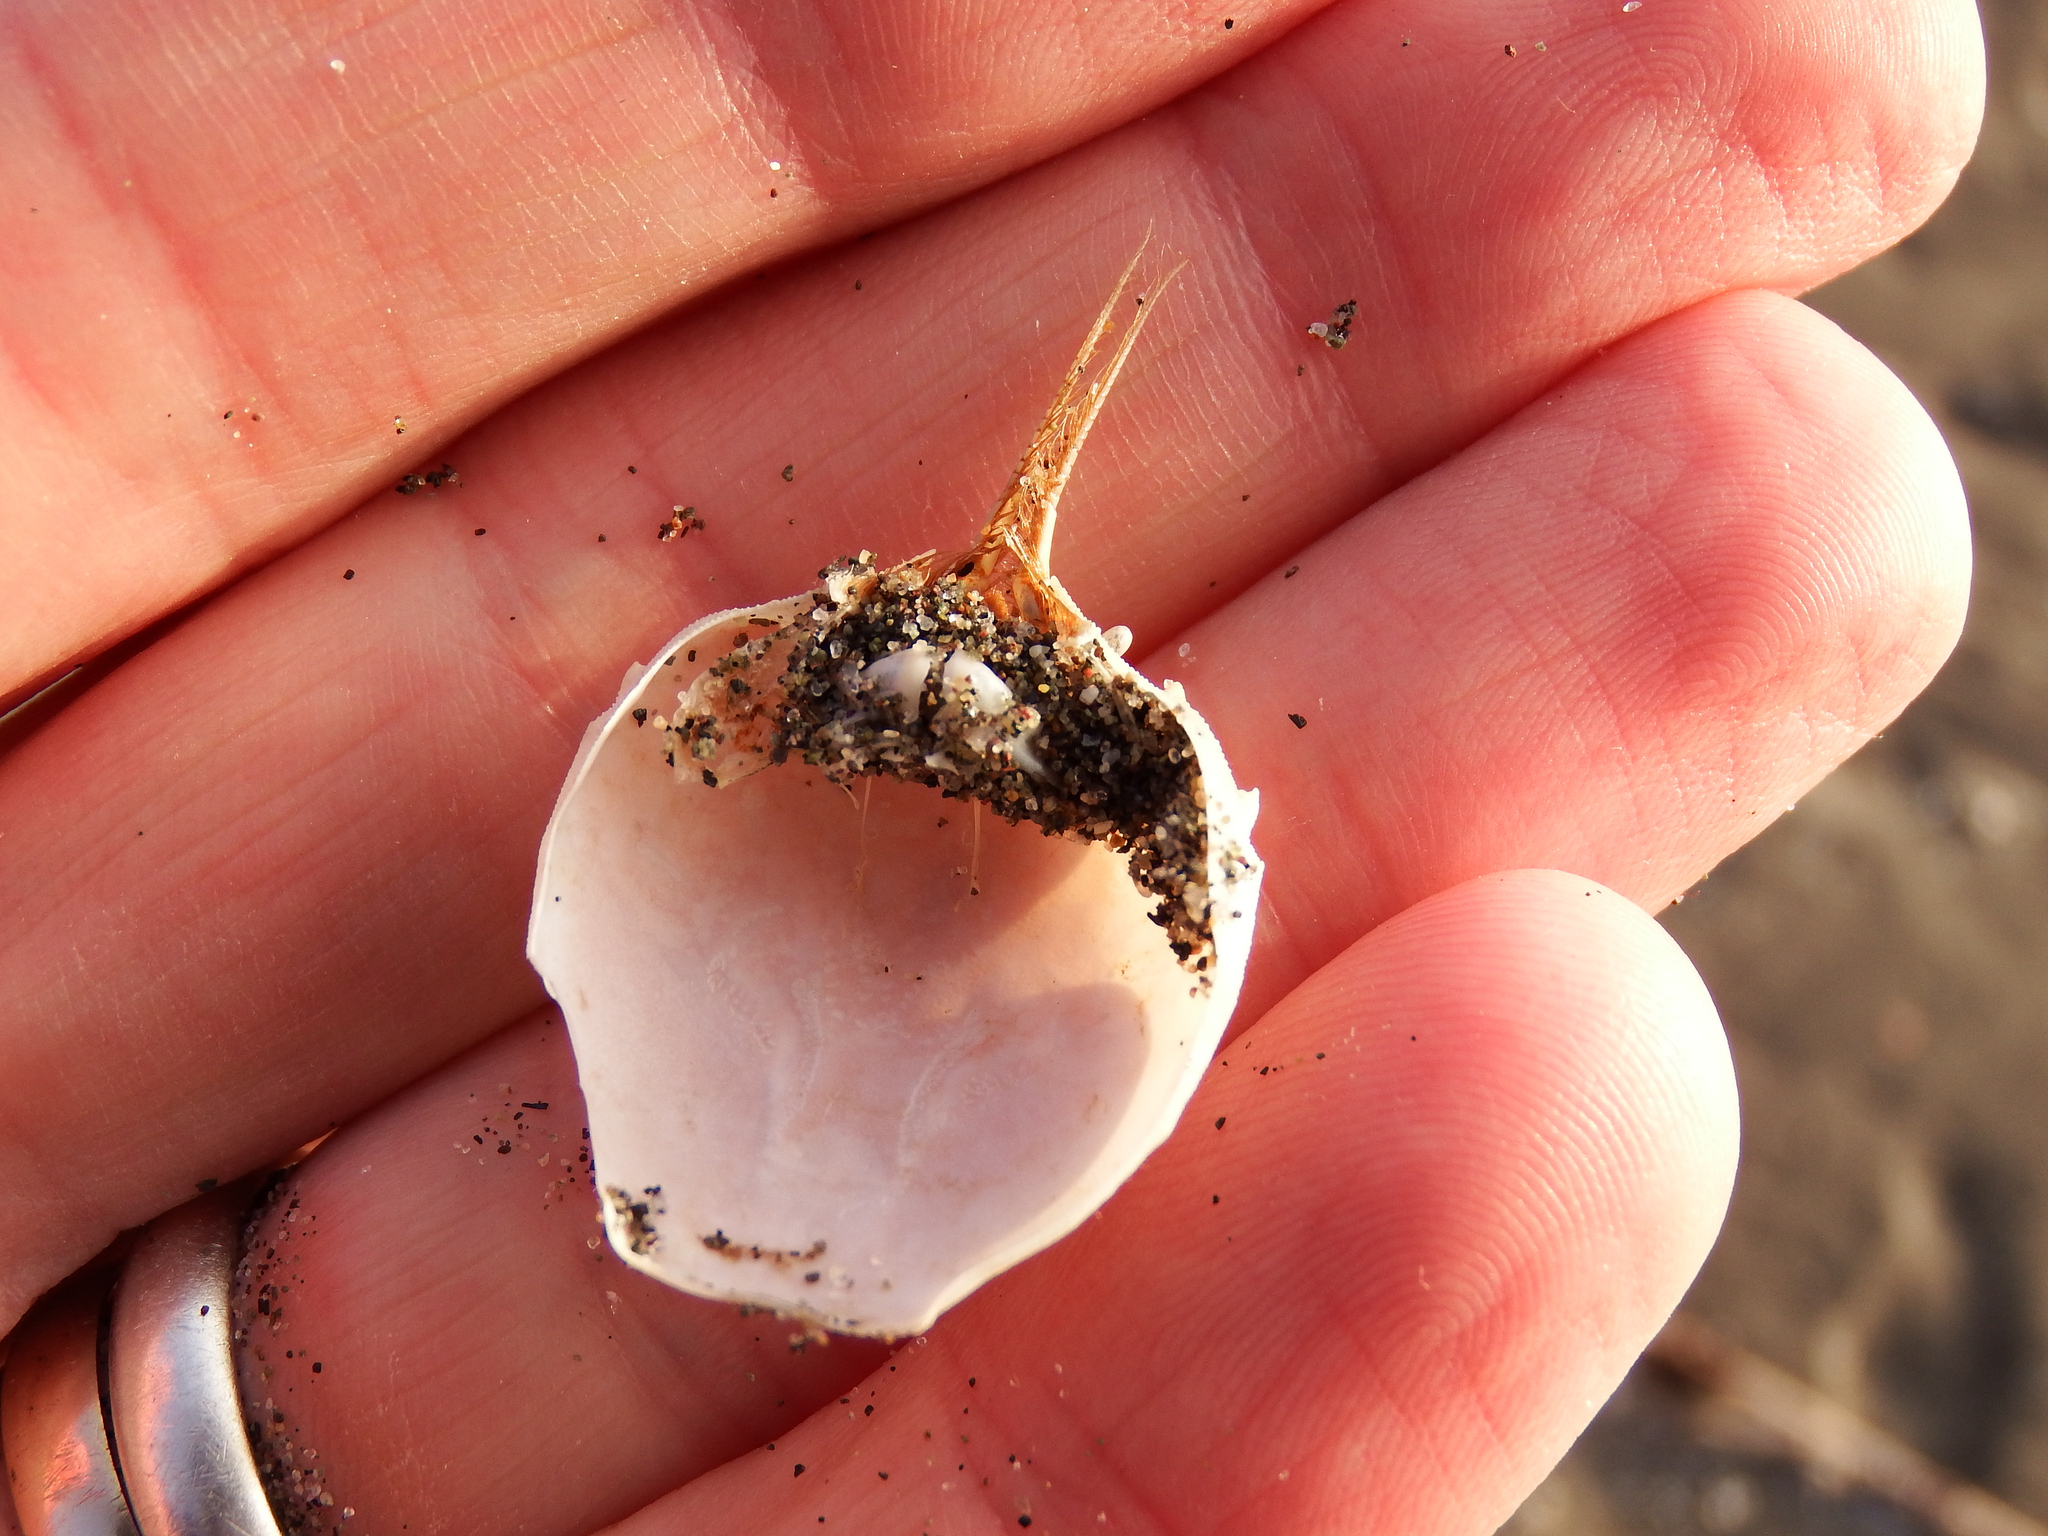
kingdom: Animalia
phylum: Arthropoda
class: Malacostraca
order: Decapoda
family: Atelecyclidae
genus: Pseudocorystes
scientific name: Pseudocorystes sicarius
